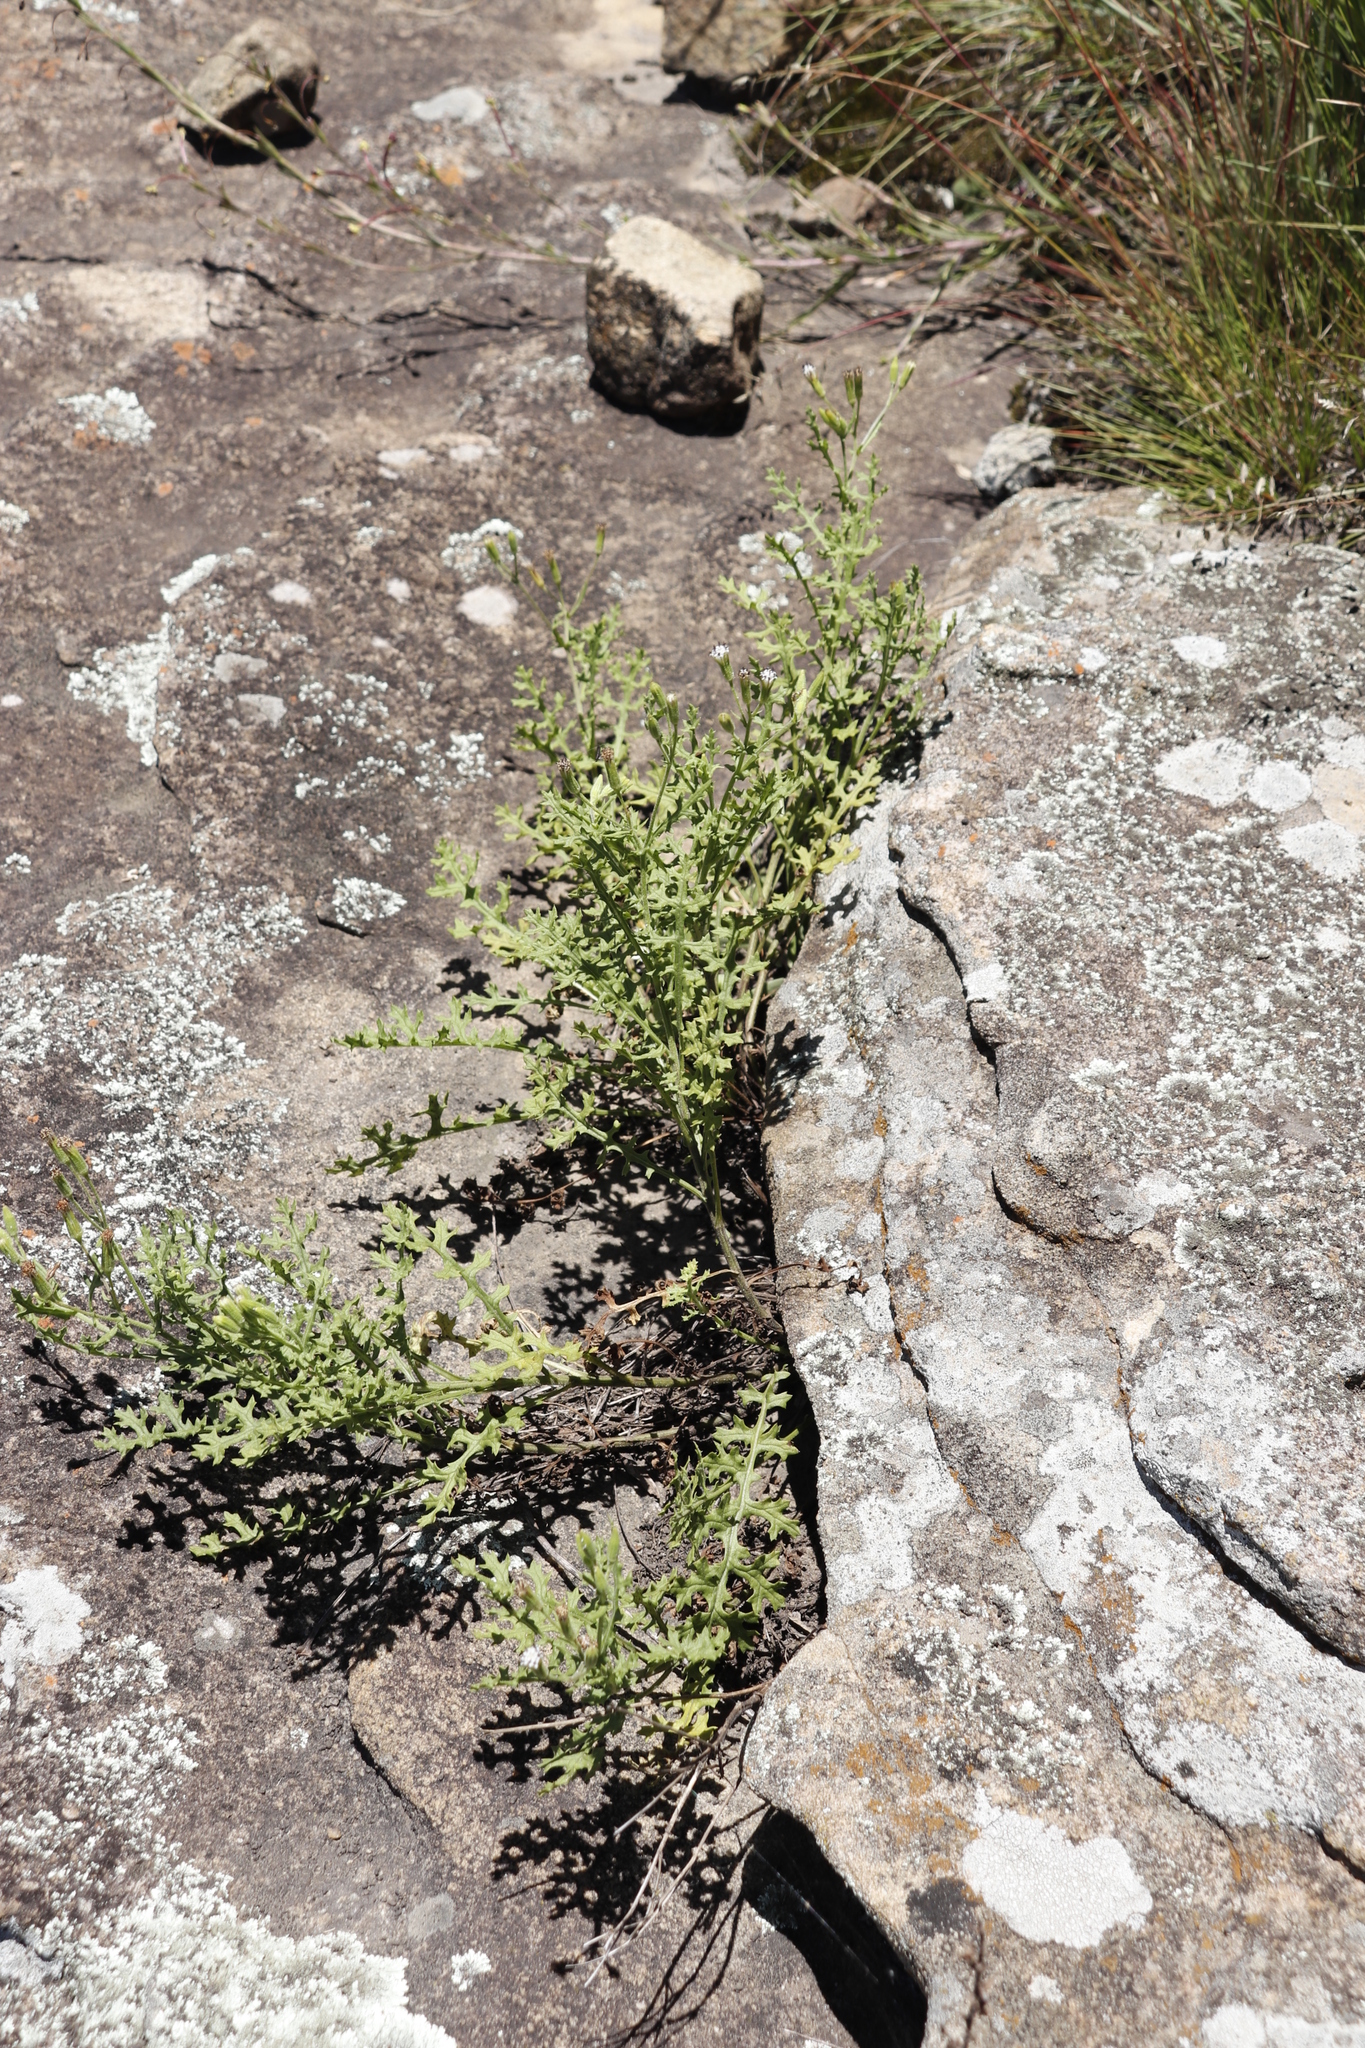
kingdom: Plantae
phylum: Tracheophyta
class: Magnoliopsida
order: Asterales
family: Asteraceae
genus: Senecio
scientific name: Senecio subrubriflorus
